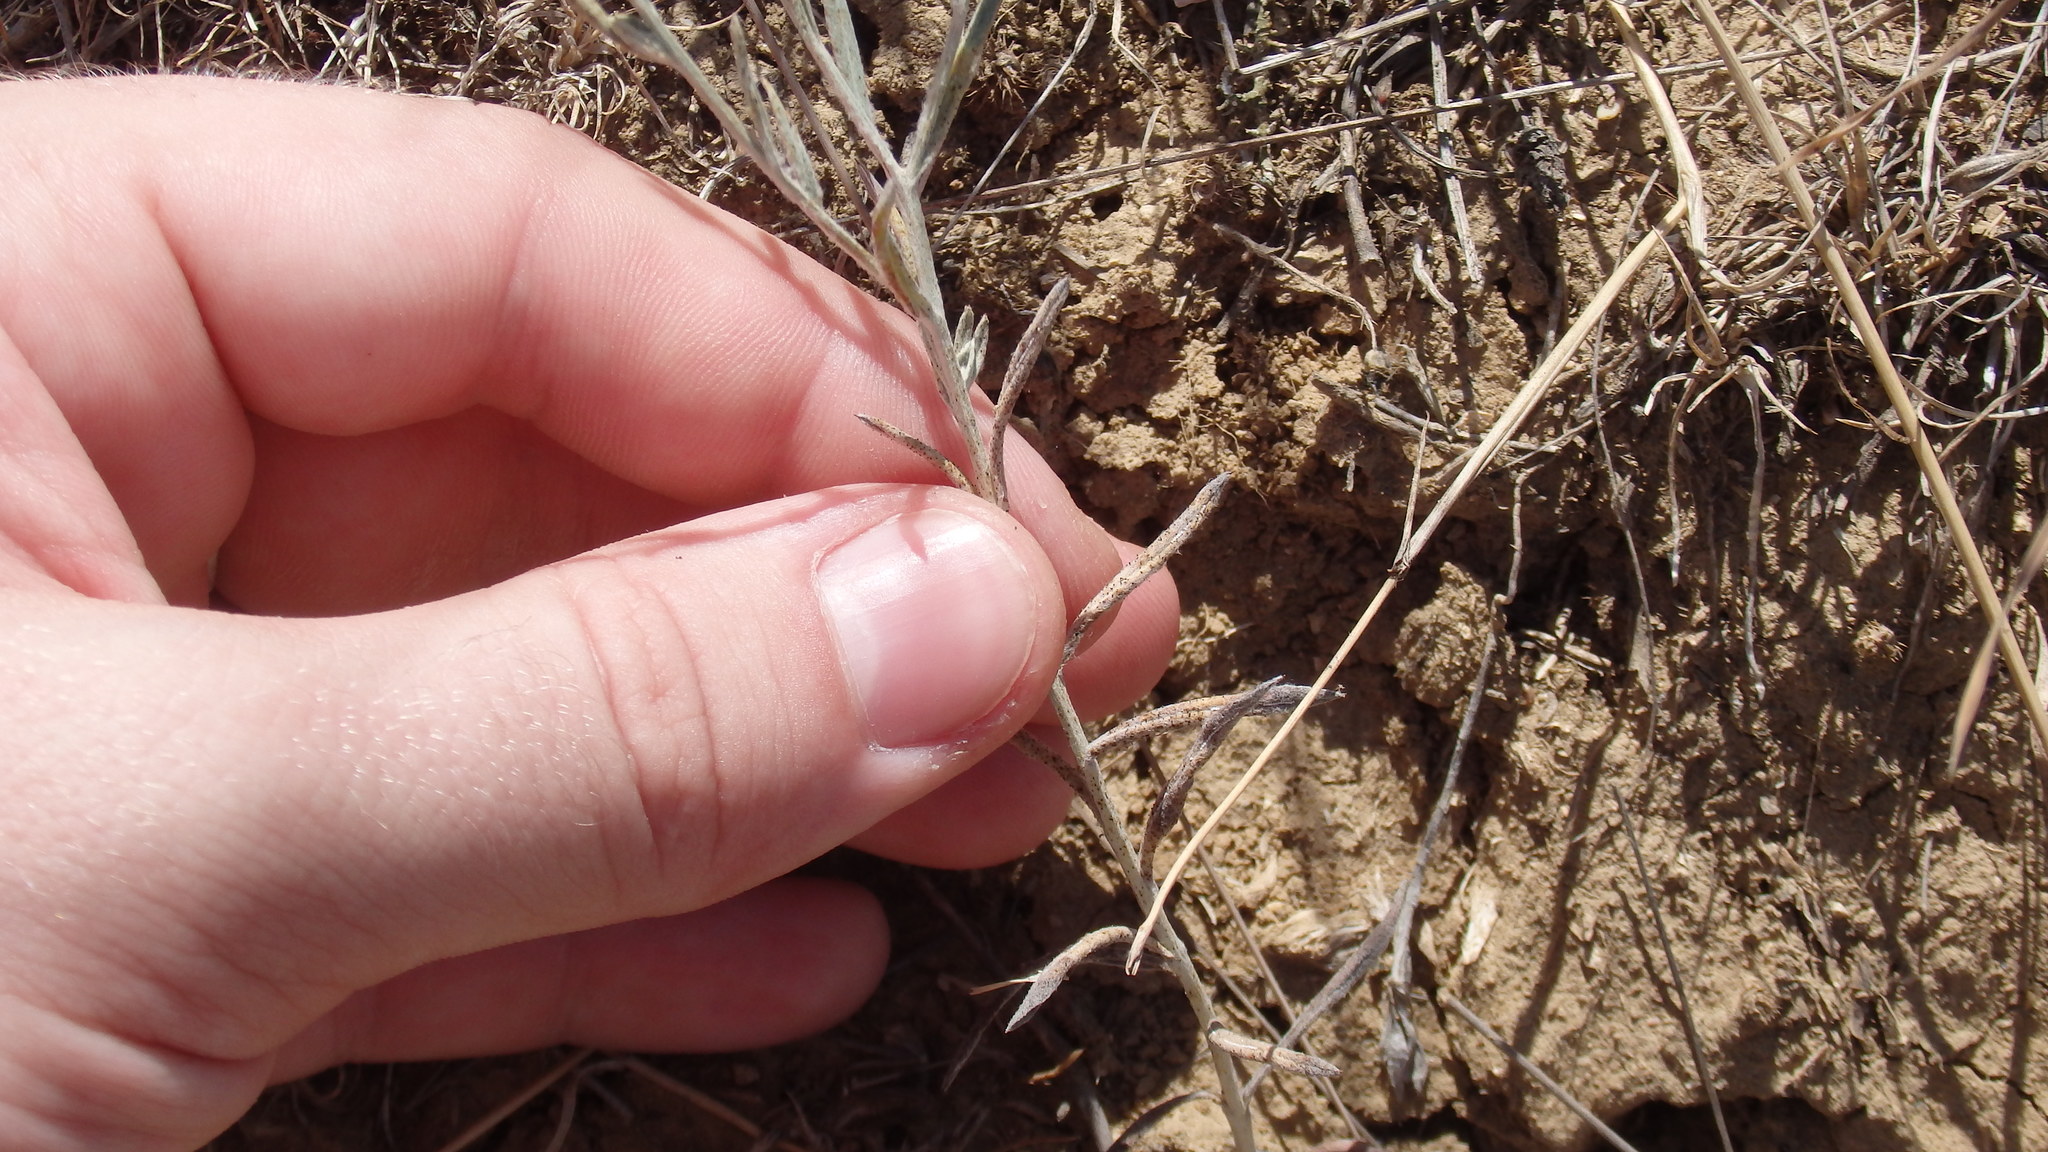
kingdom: Plantae
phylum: Tracheophyta
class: Magnoliopsida
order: Asterales
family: Asteraceae
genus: Xeranthemum
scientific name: Xeranthemum annuum
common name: Immortelle
